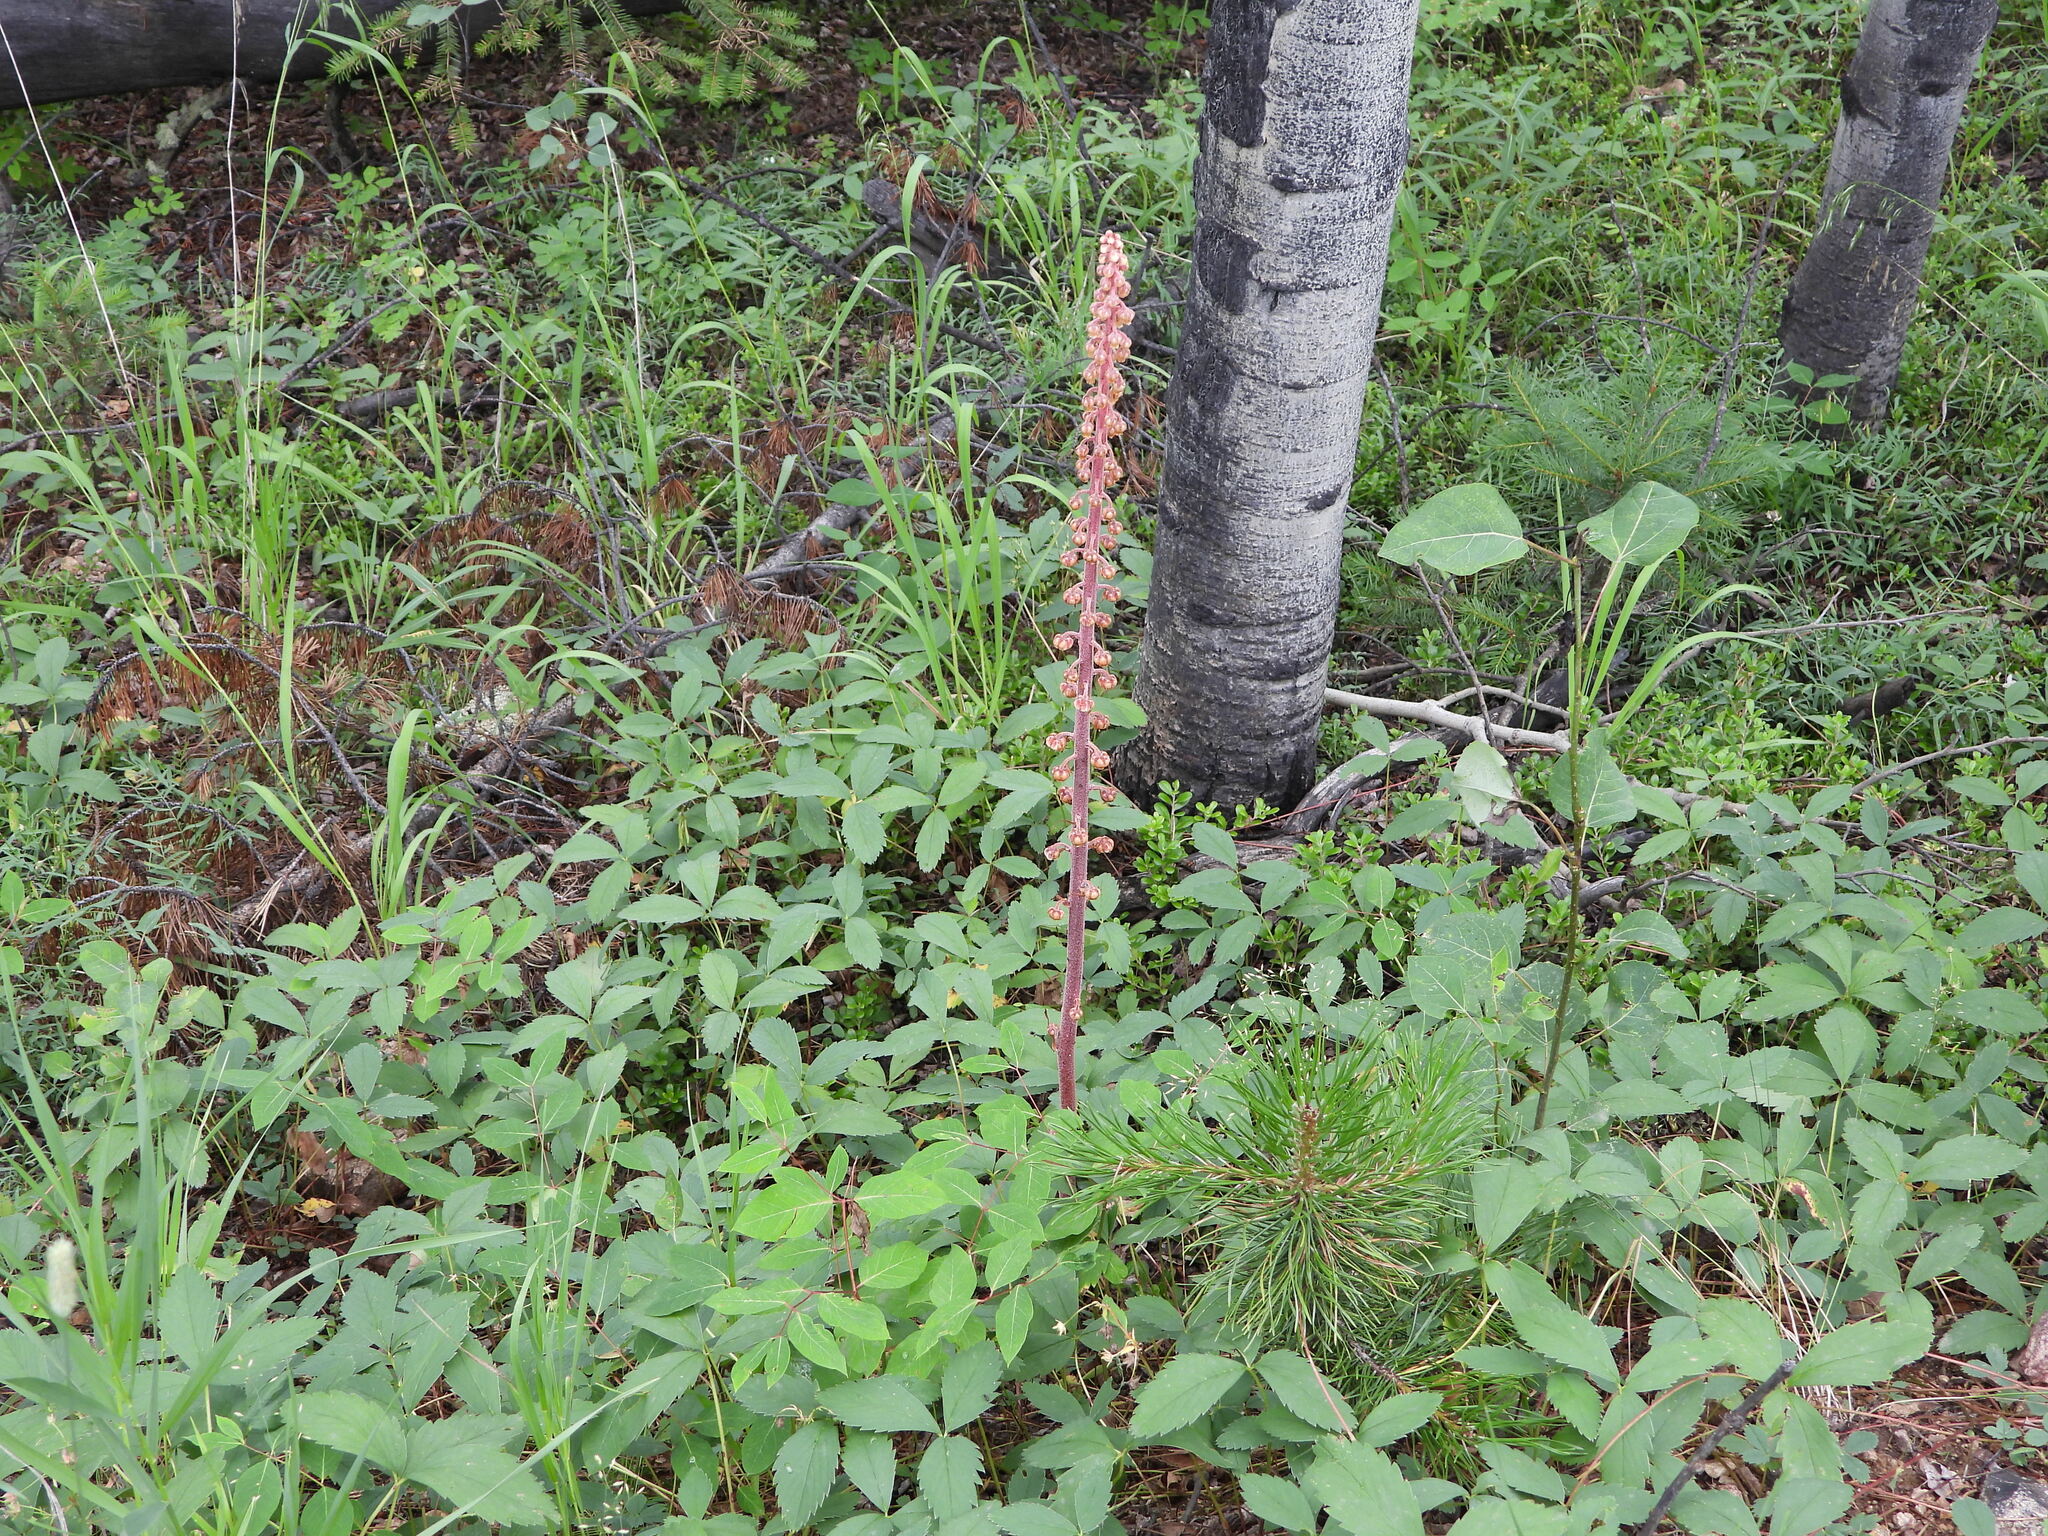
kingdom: Plantae
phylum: Tracheophyta
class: Magnoliopsida
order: Ericales
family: Ericaceae
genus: Pterospora
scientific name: Pterospora andromedea
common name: Giant bird's-nest
